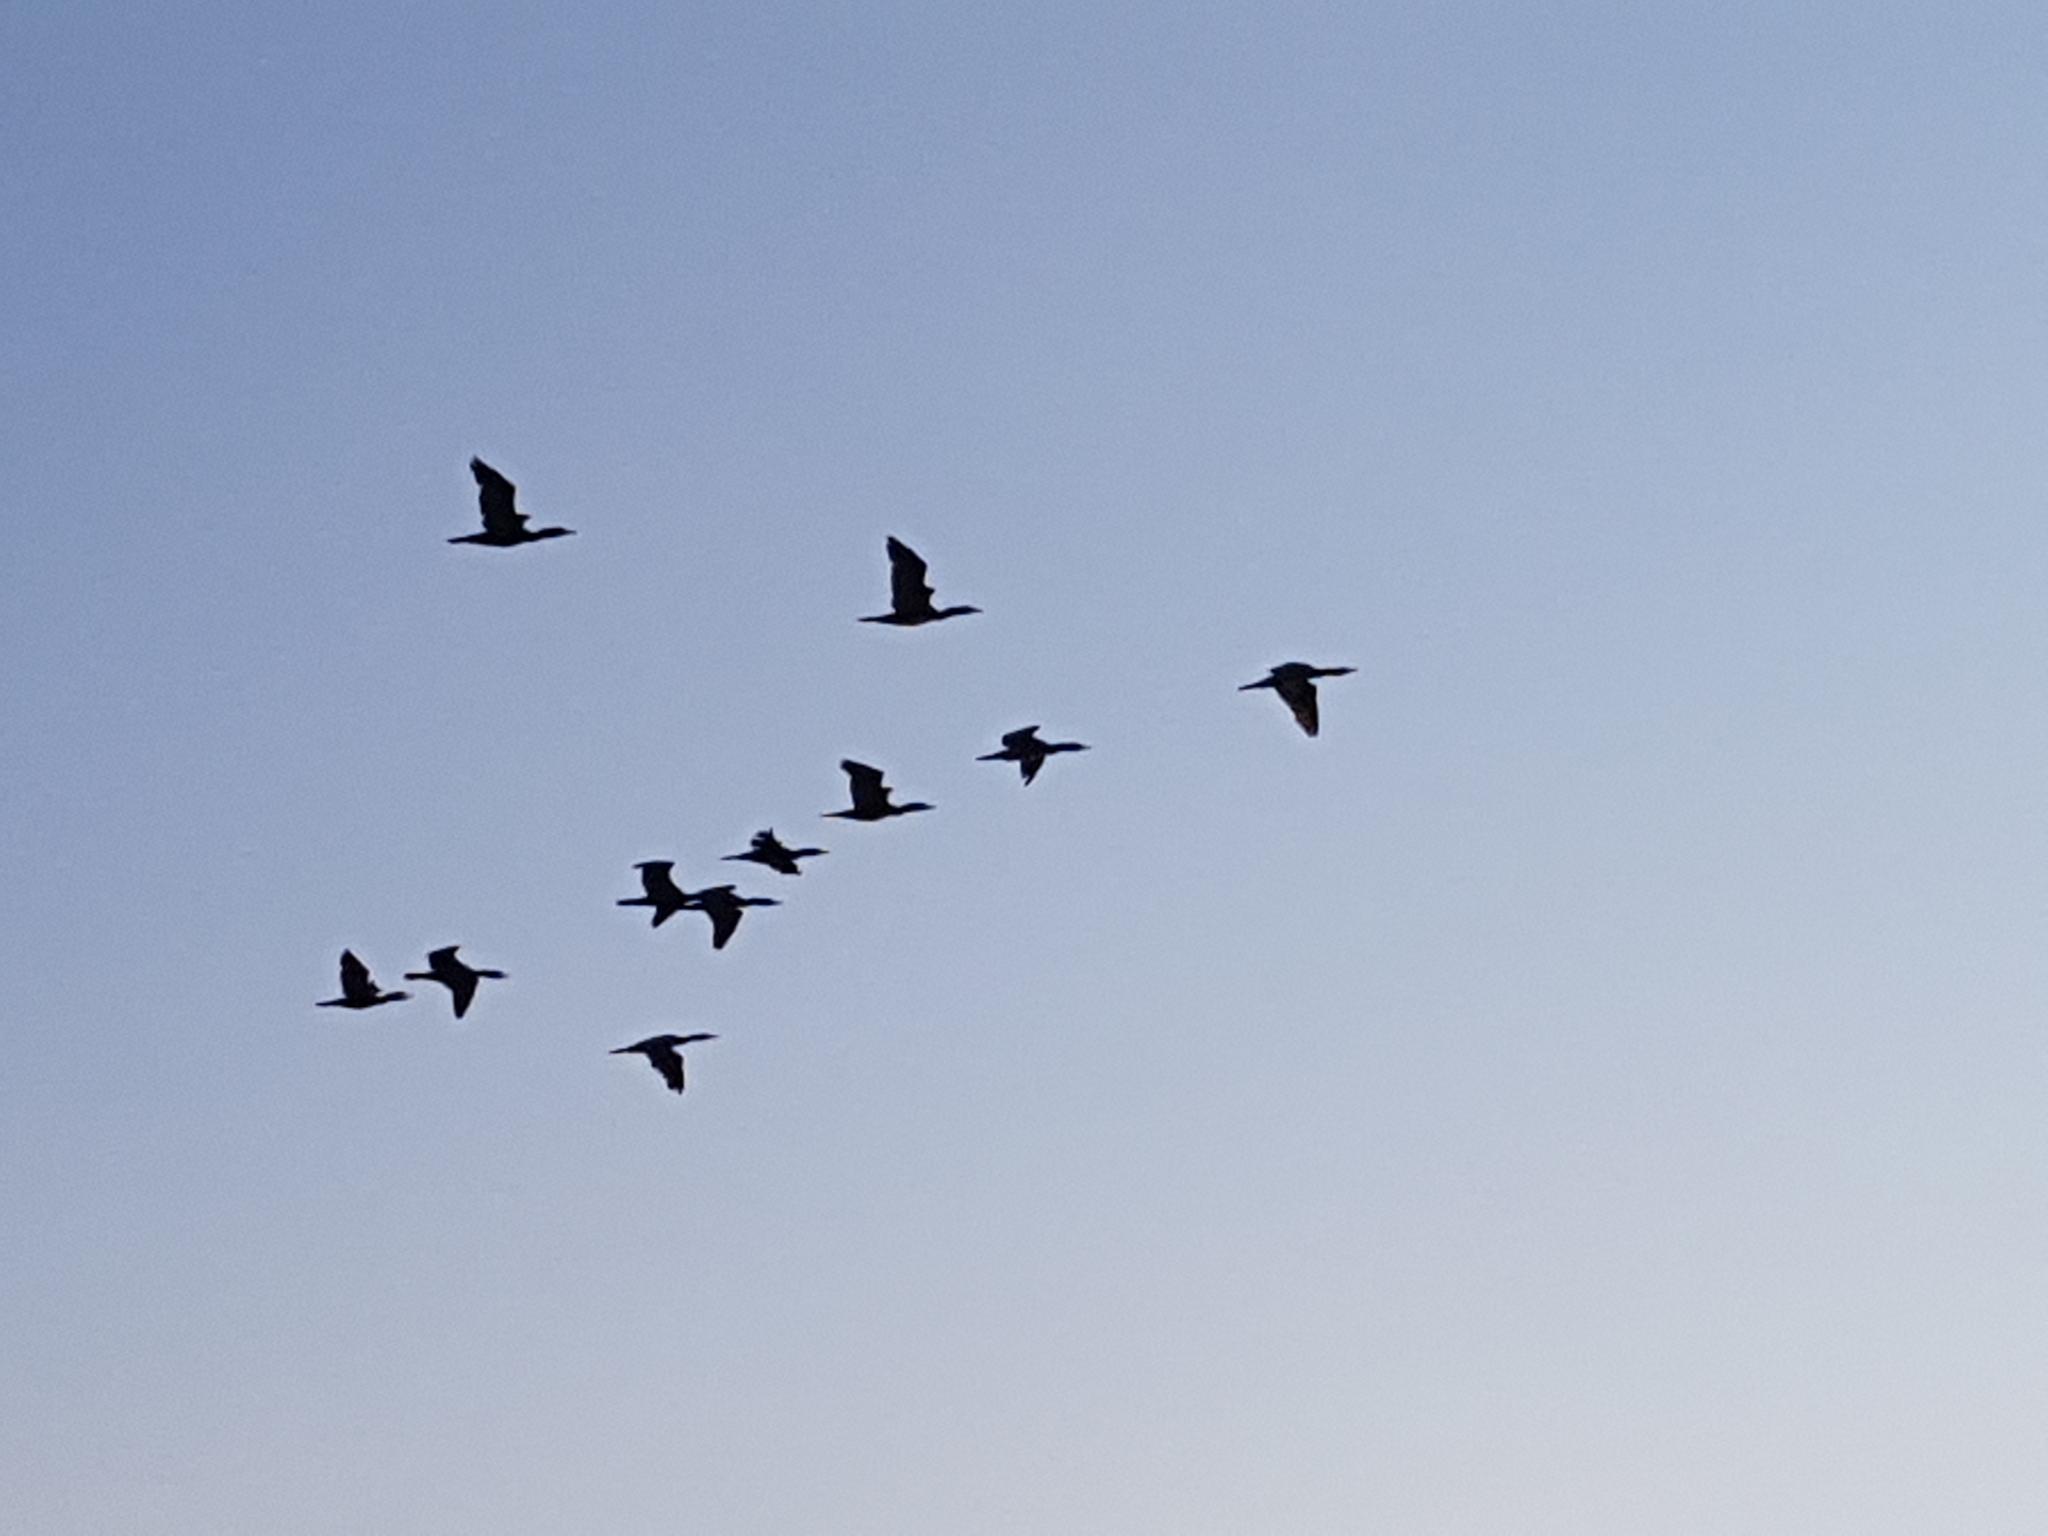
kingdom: Animalia
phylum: Chordata
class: Aves
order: Suliformes
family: Phalacrocoracidae
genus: Phalacrocorax
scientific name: Phalacrocorax carbo
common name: Great cormorant
